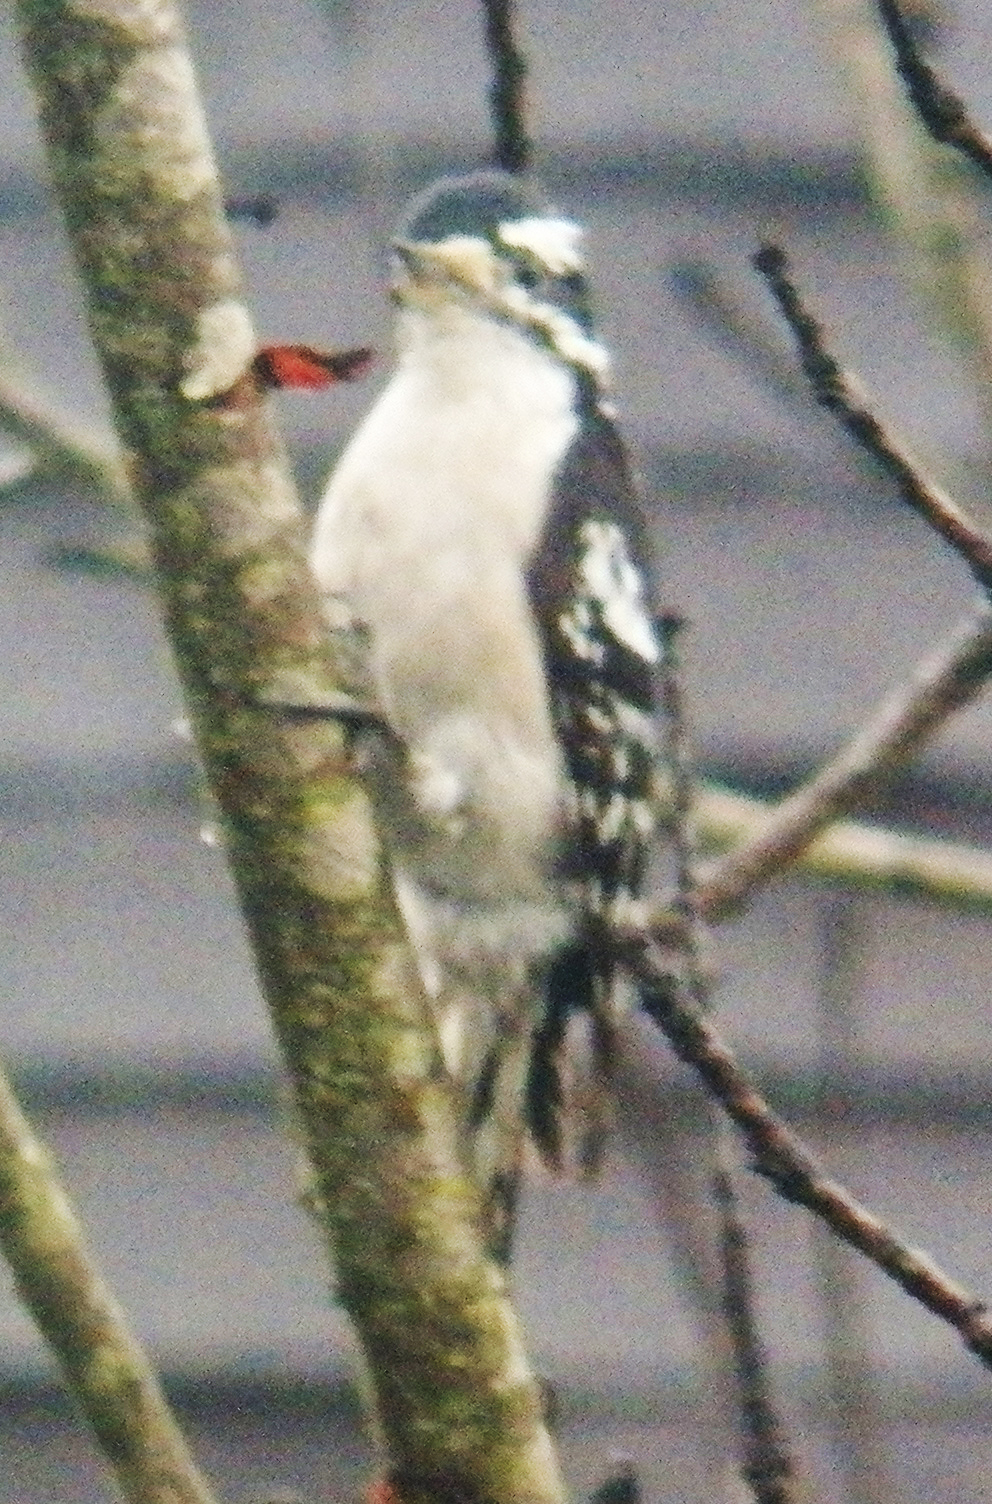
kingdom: Animalia
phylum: Chordata
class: Aves
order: Piciformes
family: Picidae
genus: Dryobates
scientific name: Dryobates pubescens
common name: Downy woodpecker
